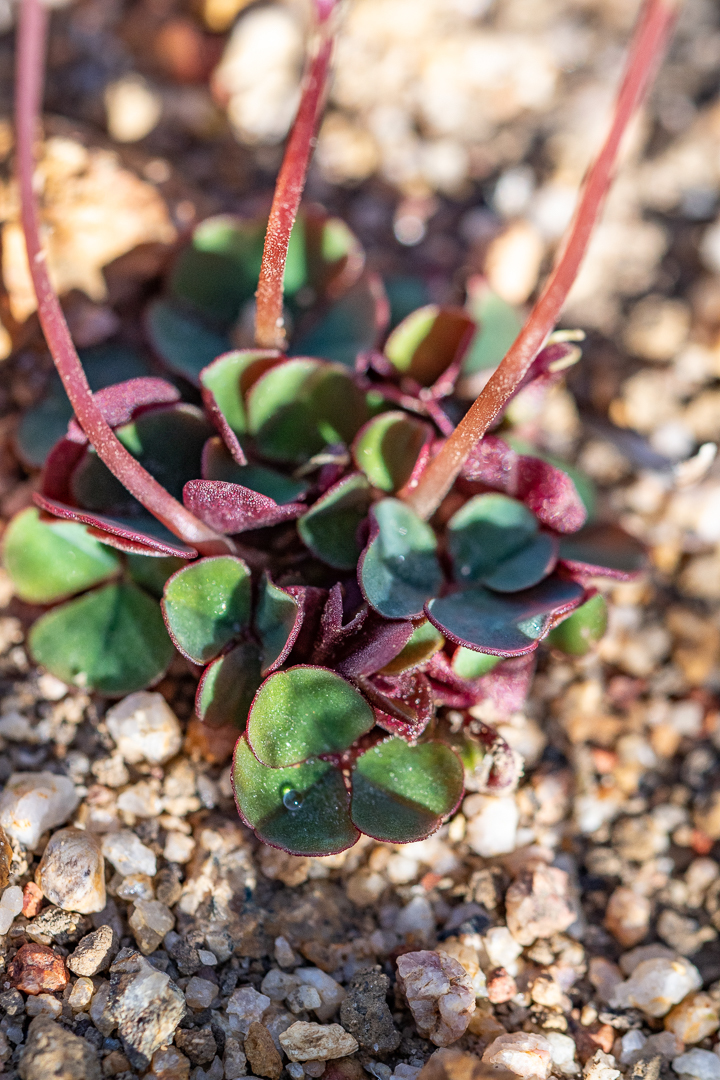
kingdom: Plantae
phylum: Tracheophyta
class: Magnoliopsida
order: Oxalidales
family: Oxalidaceae
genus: Oxalis
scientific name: Oxalis commutata
